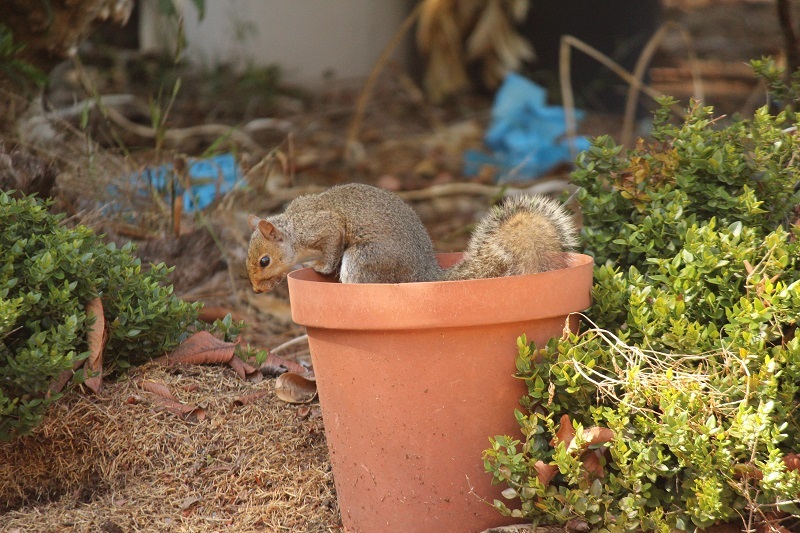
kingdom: Animalia
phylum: Chordata
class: Mammalia
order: Rodentia
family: Sciuridae
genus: Sciurus
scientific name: Sciurus carolinensis
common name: Eastern gray squirrel
